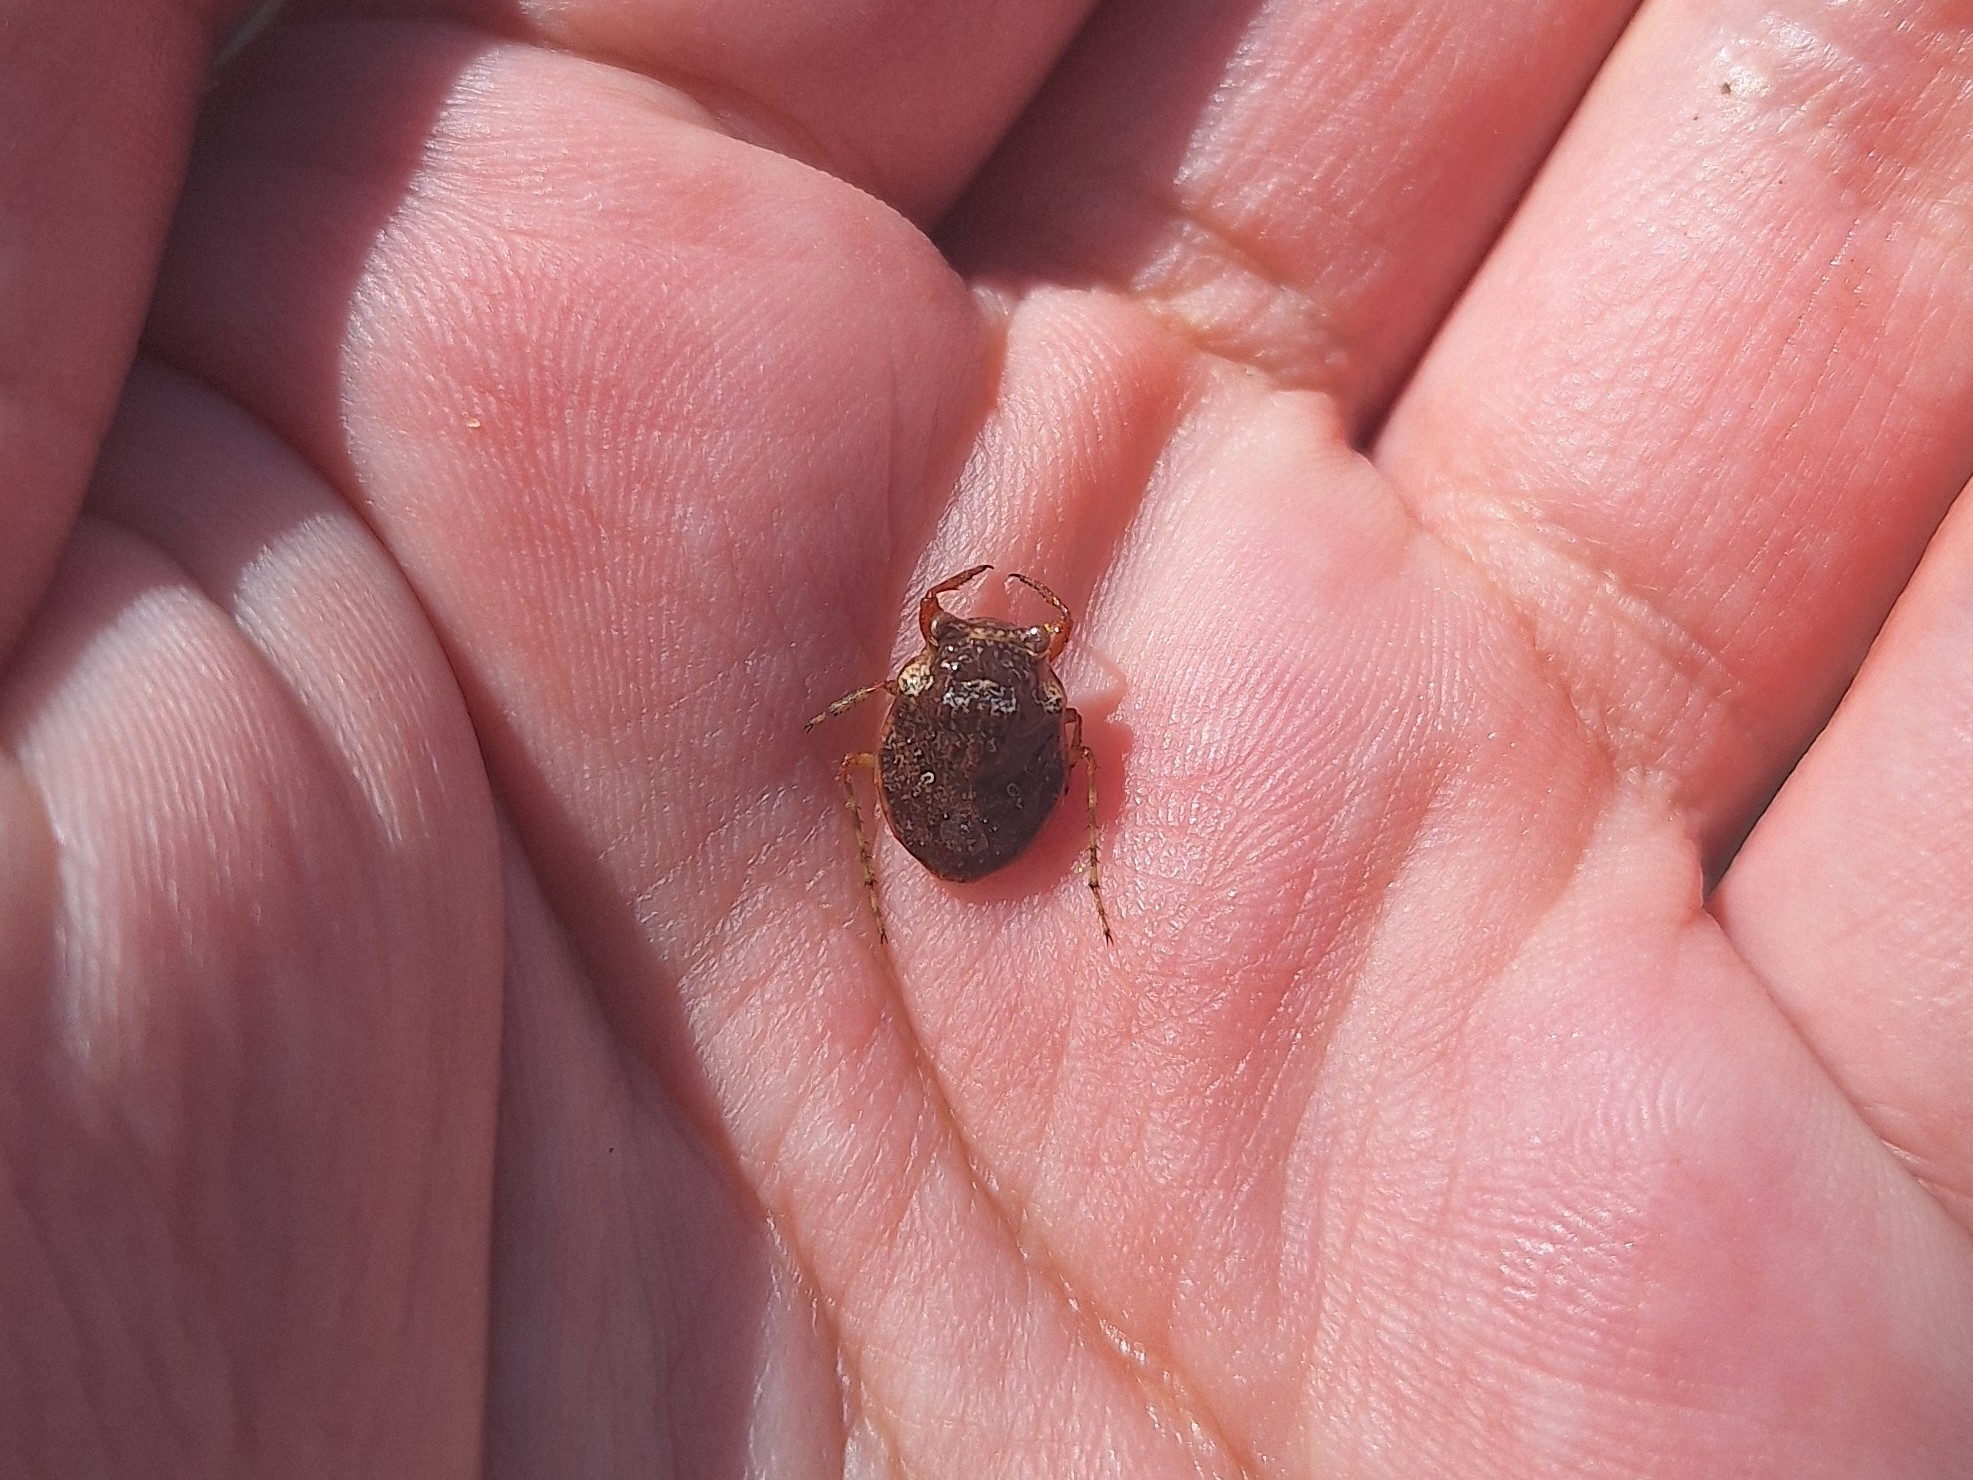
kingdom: Animalia
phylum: Arthropoda
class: Insecta
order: Hemiptera
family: Gelastocoridae
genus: Gelastocoris
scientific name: Gelastocoris rotundatus
